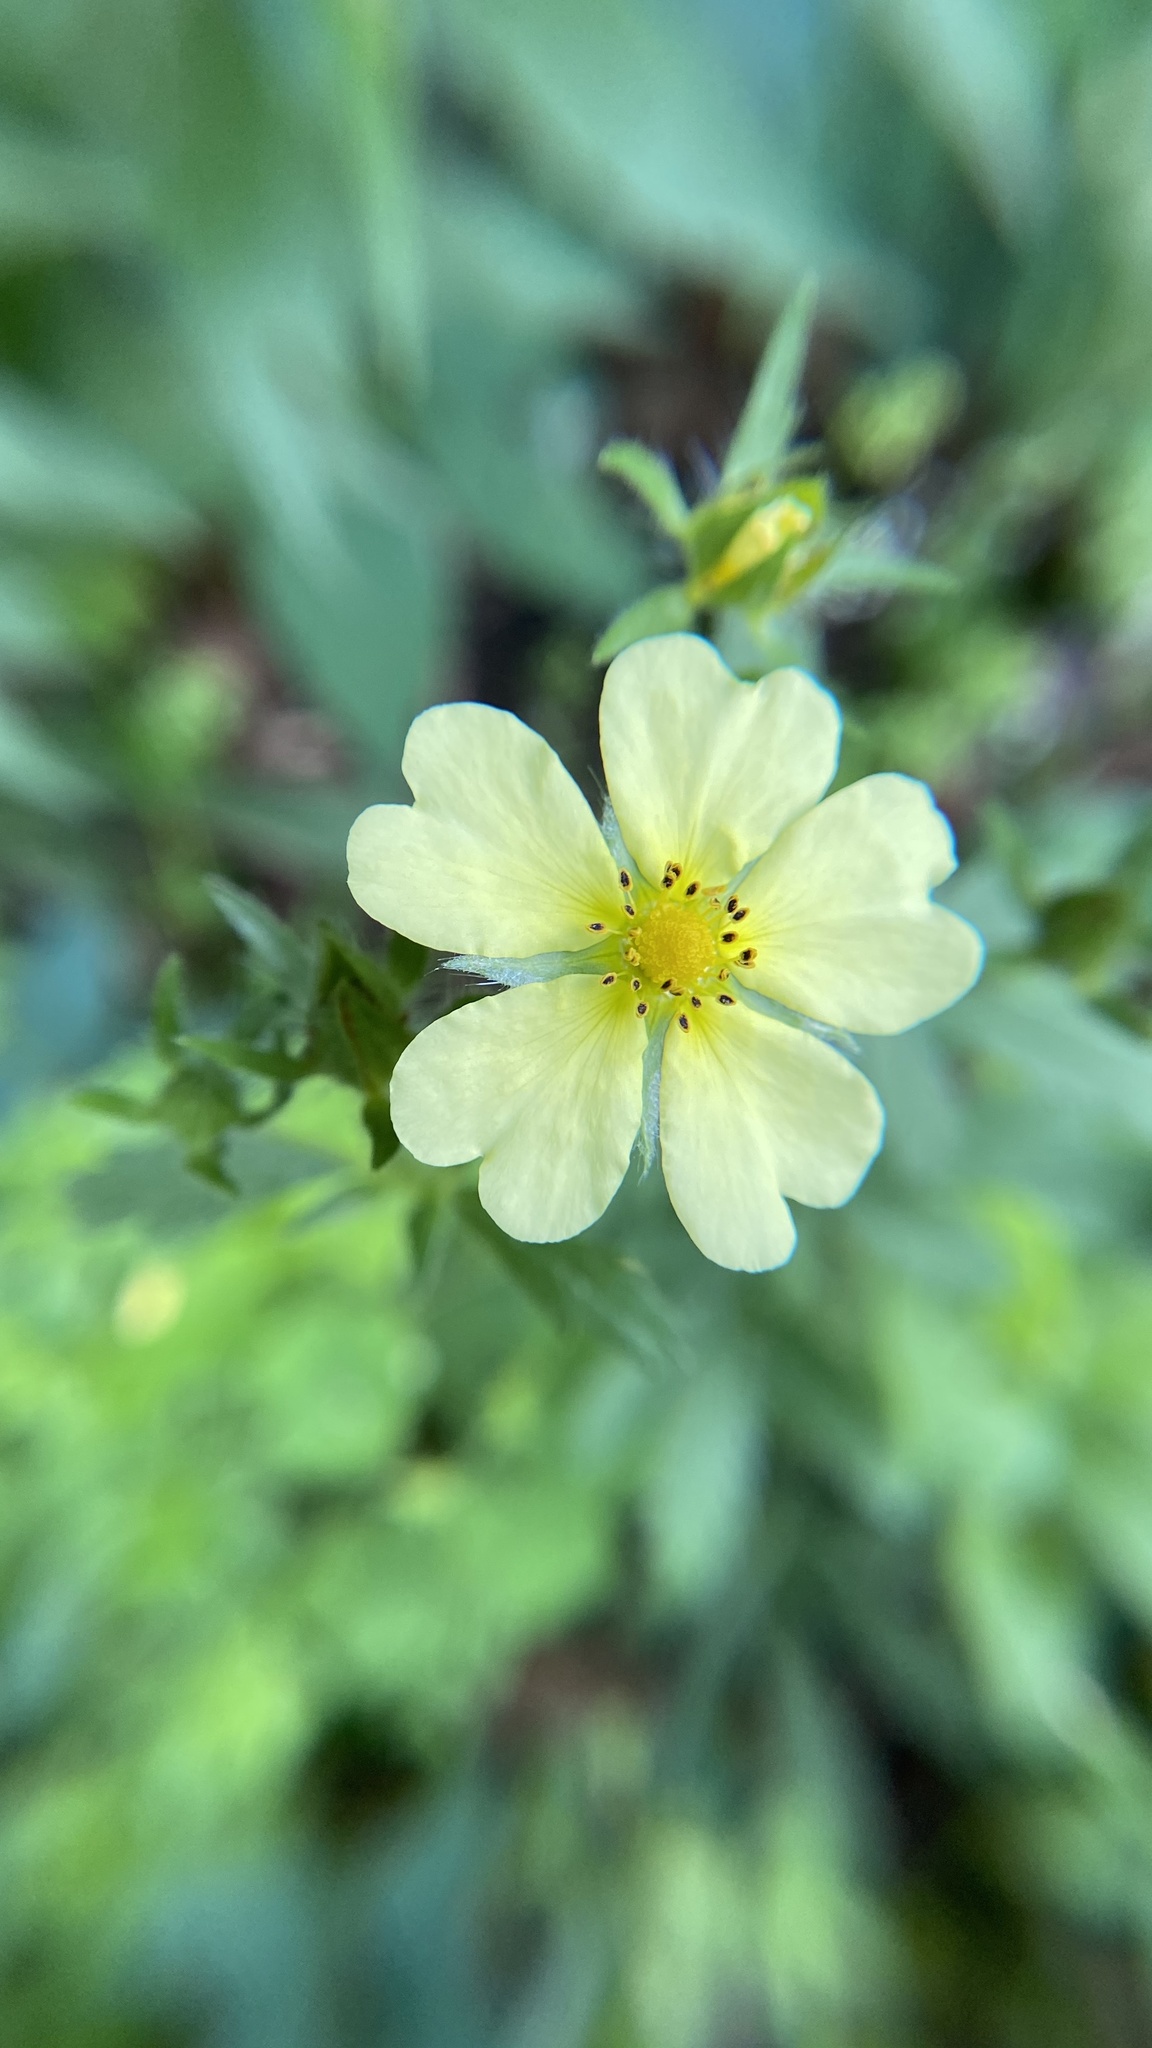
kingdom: Plantae
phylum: Tracheophyta
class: Magnoliopsida
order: Rosales
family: Rosaceae
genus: Potentilla
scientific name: Potentilla recta
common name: Sulphur cinquefoil
